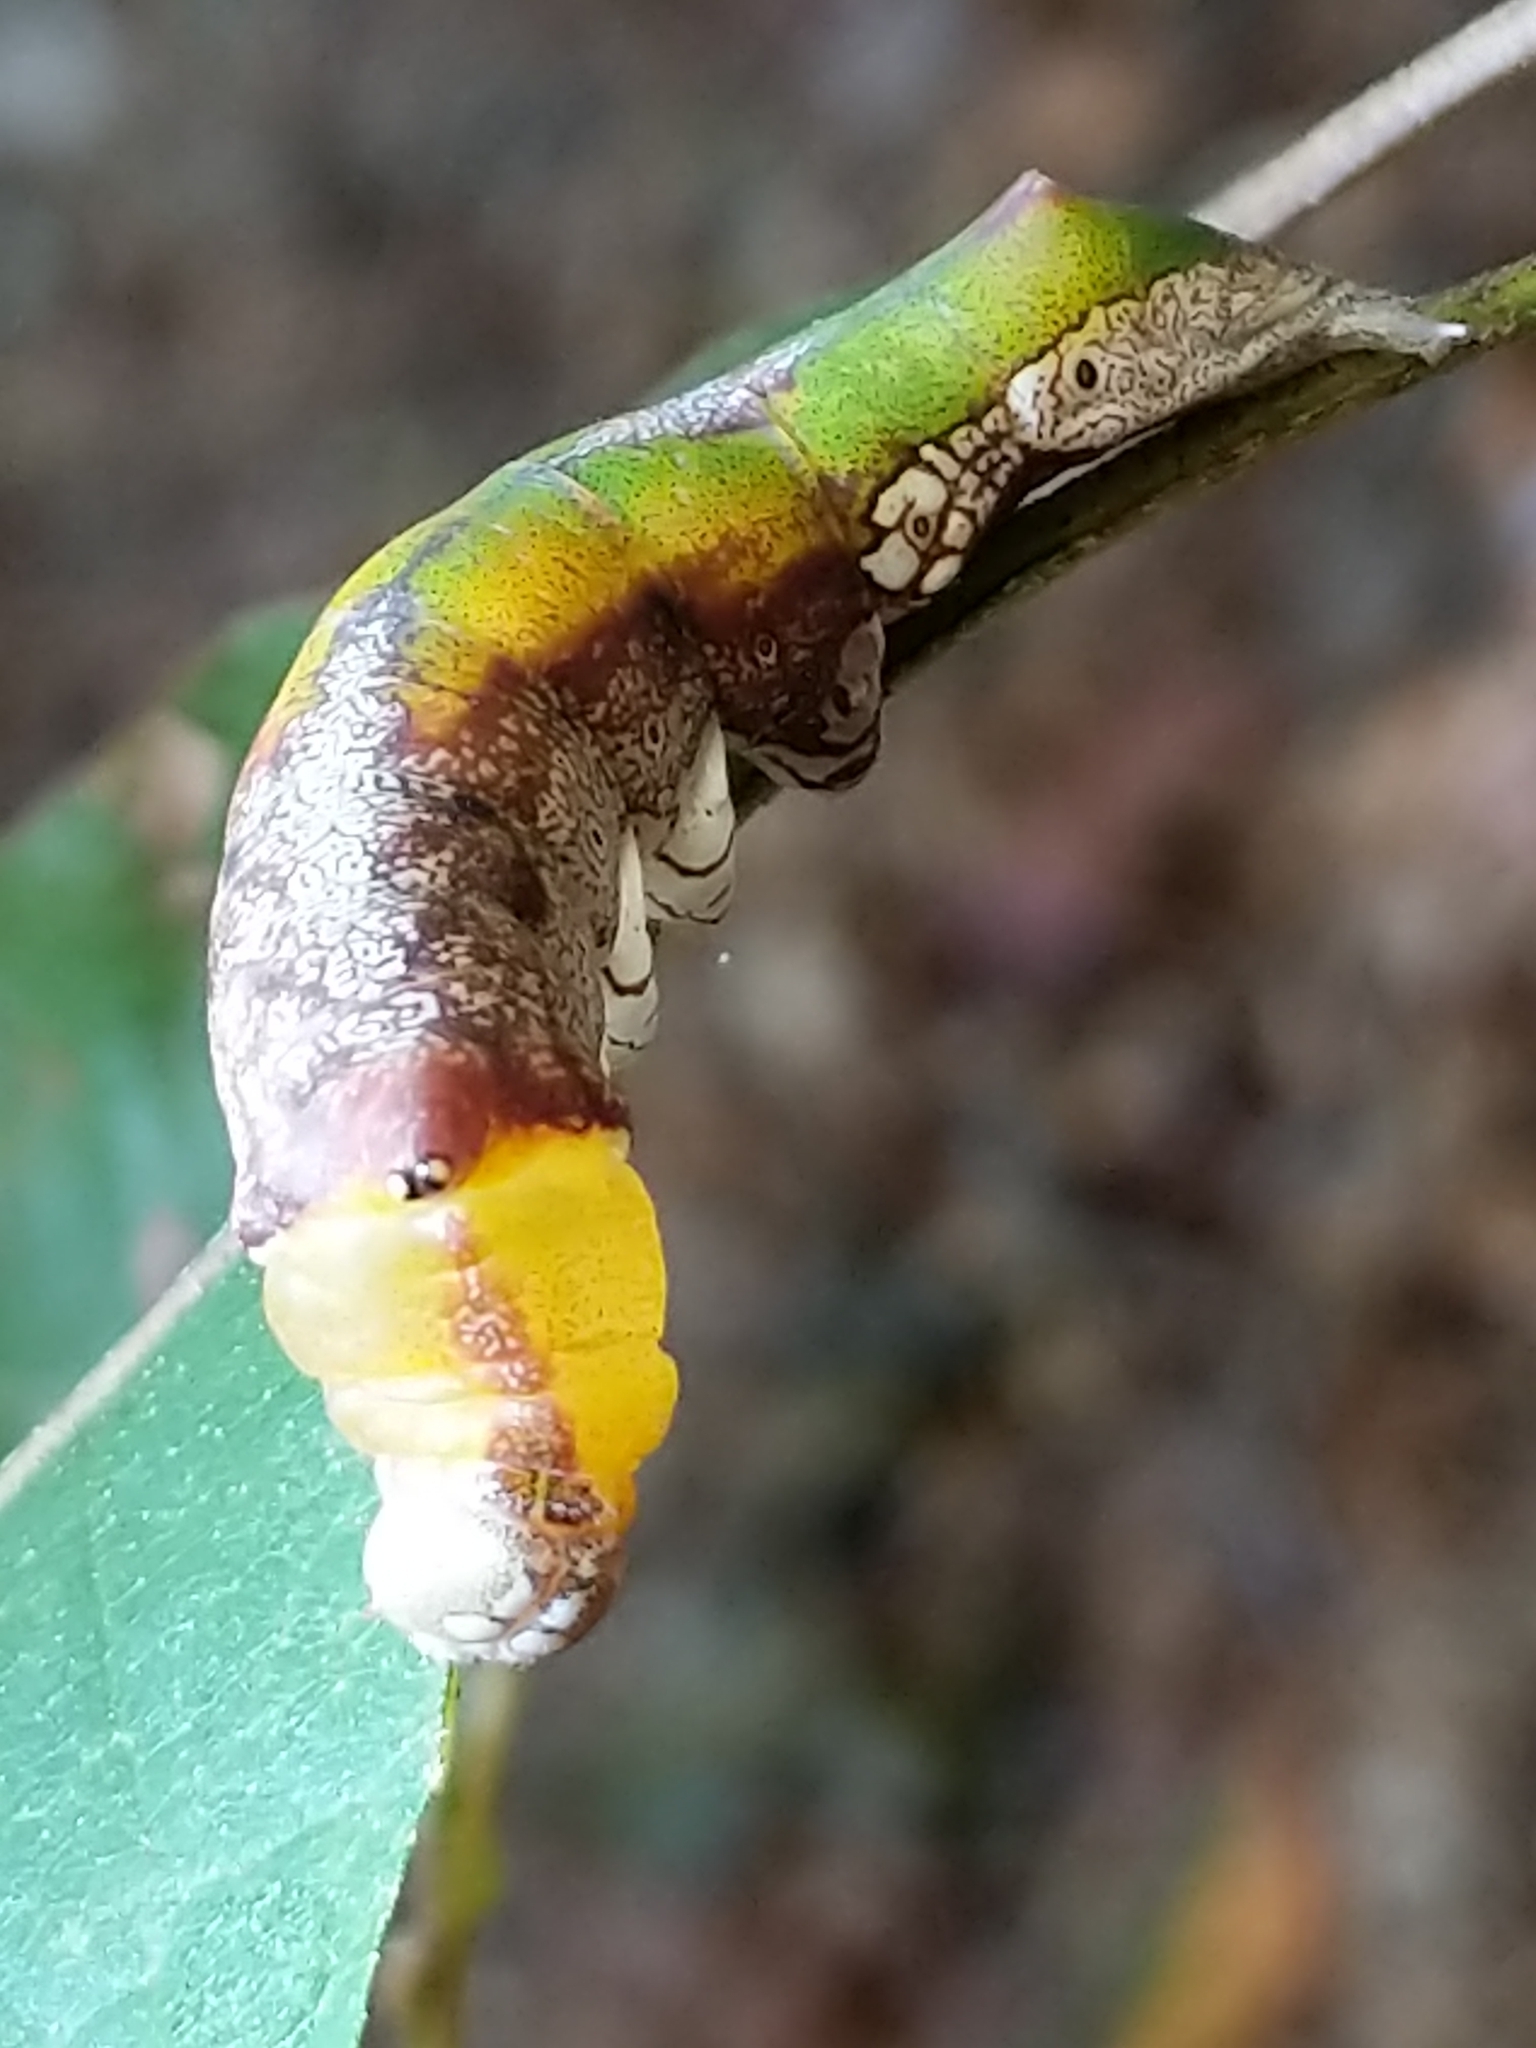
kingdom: Animalia
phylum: Arthropoda
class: Insecta
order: Lepidoptera
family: Notodontidae
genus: Oligocentria
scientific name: Oligocentria Ianassa lignicolor
